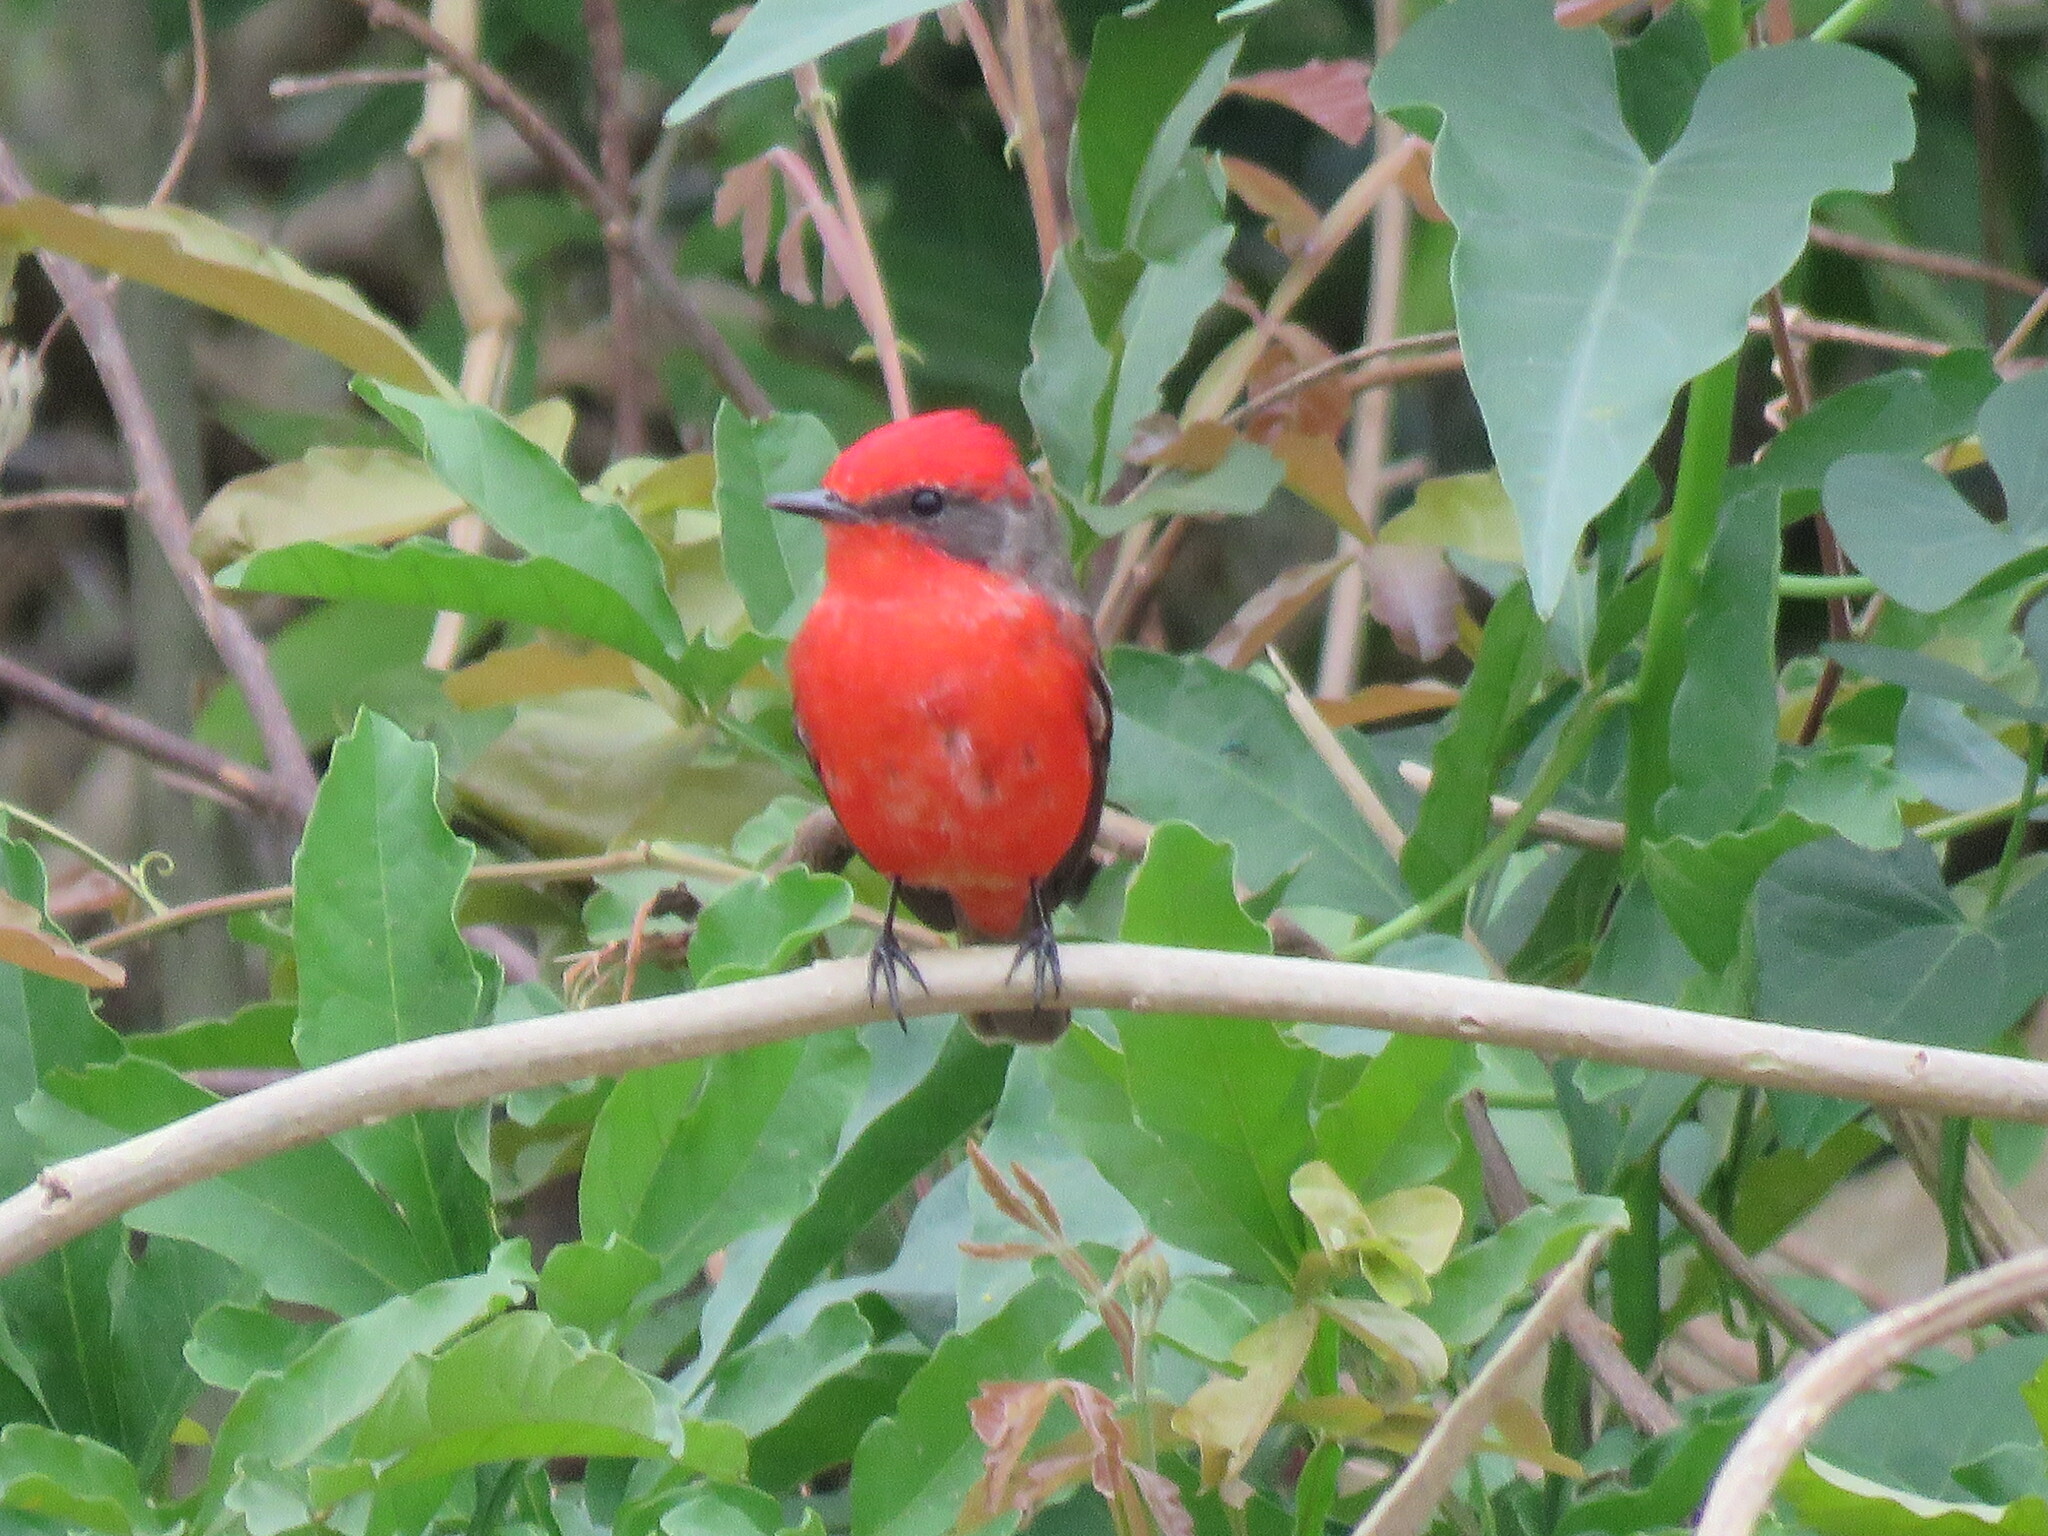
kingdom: Animalia
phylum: Chordata
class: Aves
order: Passeriformes
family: Tyrannidae
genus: Pyrocephalus
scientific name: Pyrocephalus rubinus
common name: Vermilion flycatcher
